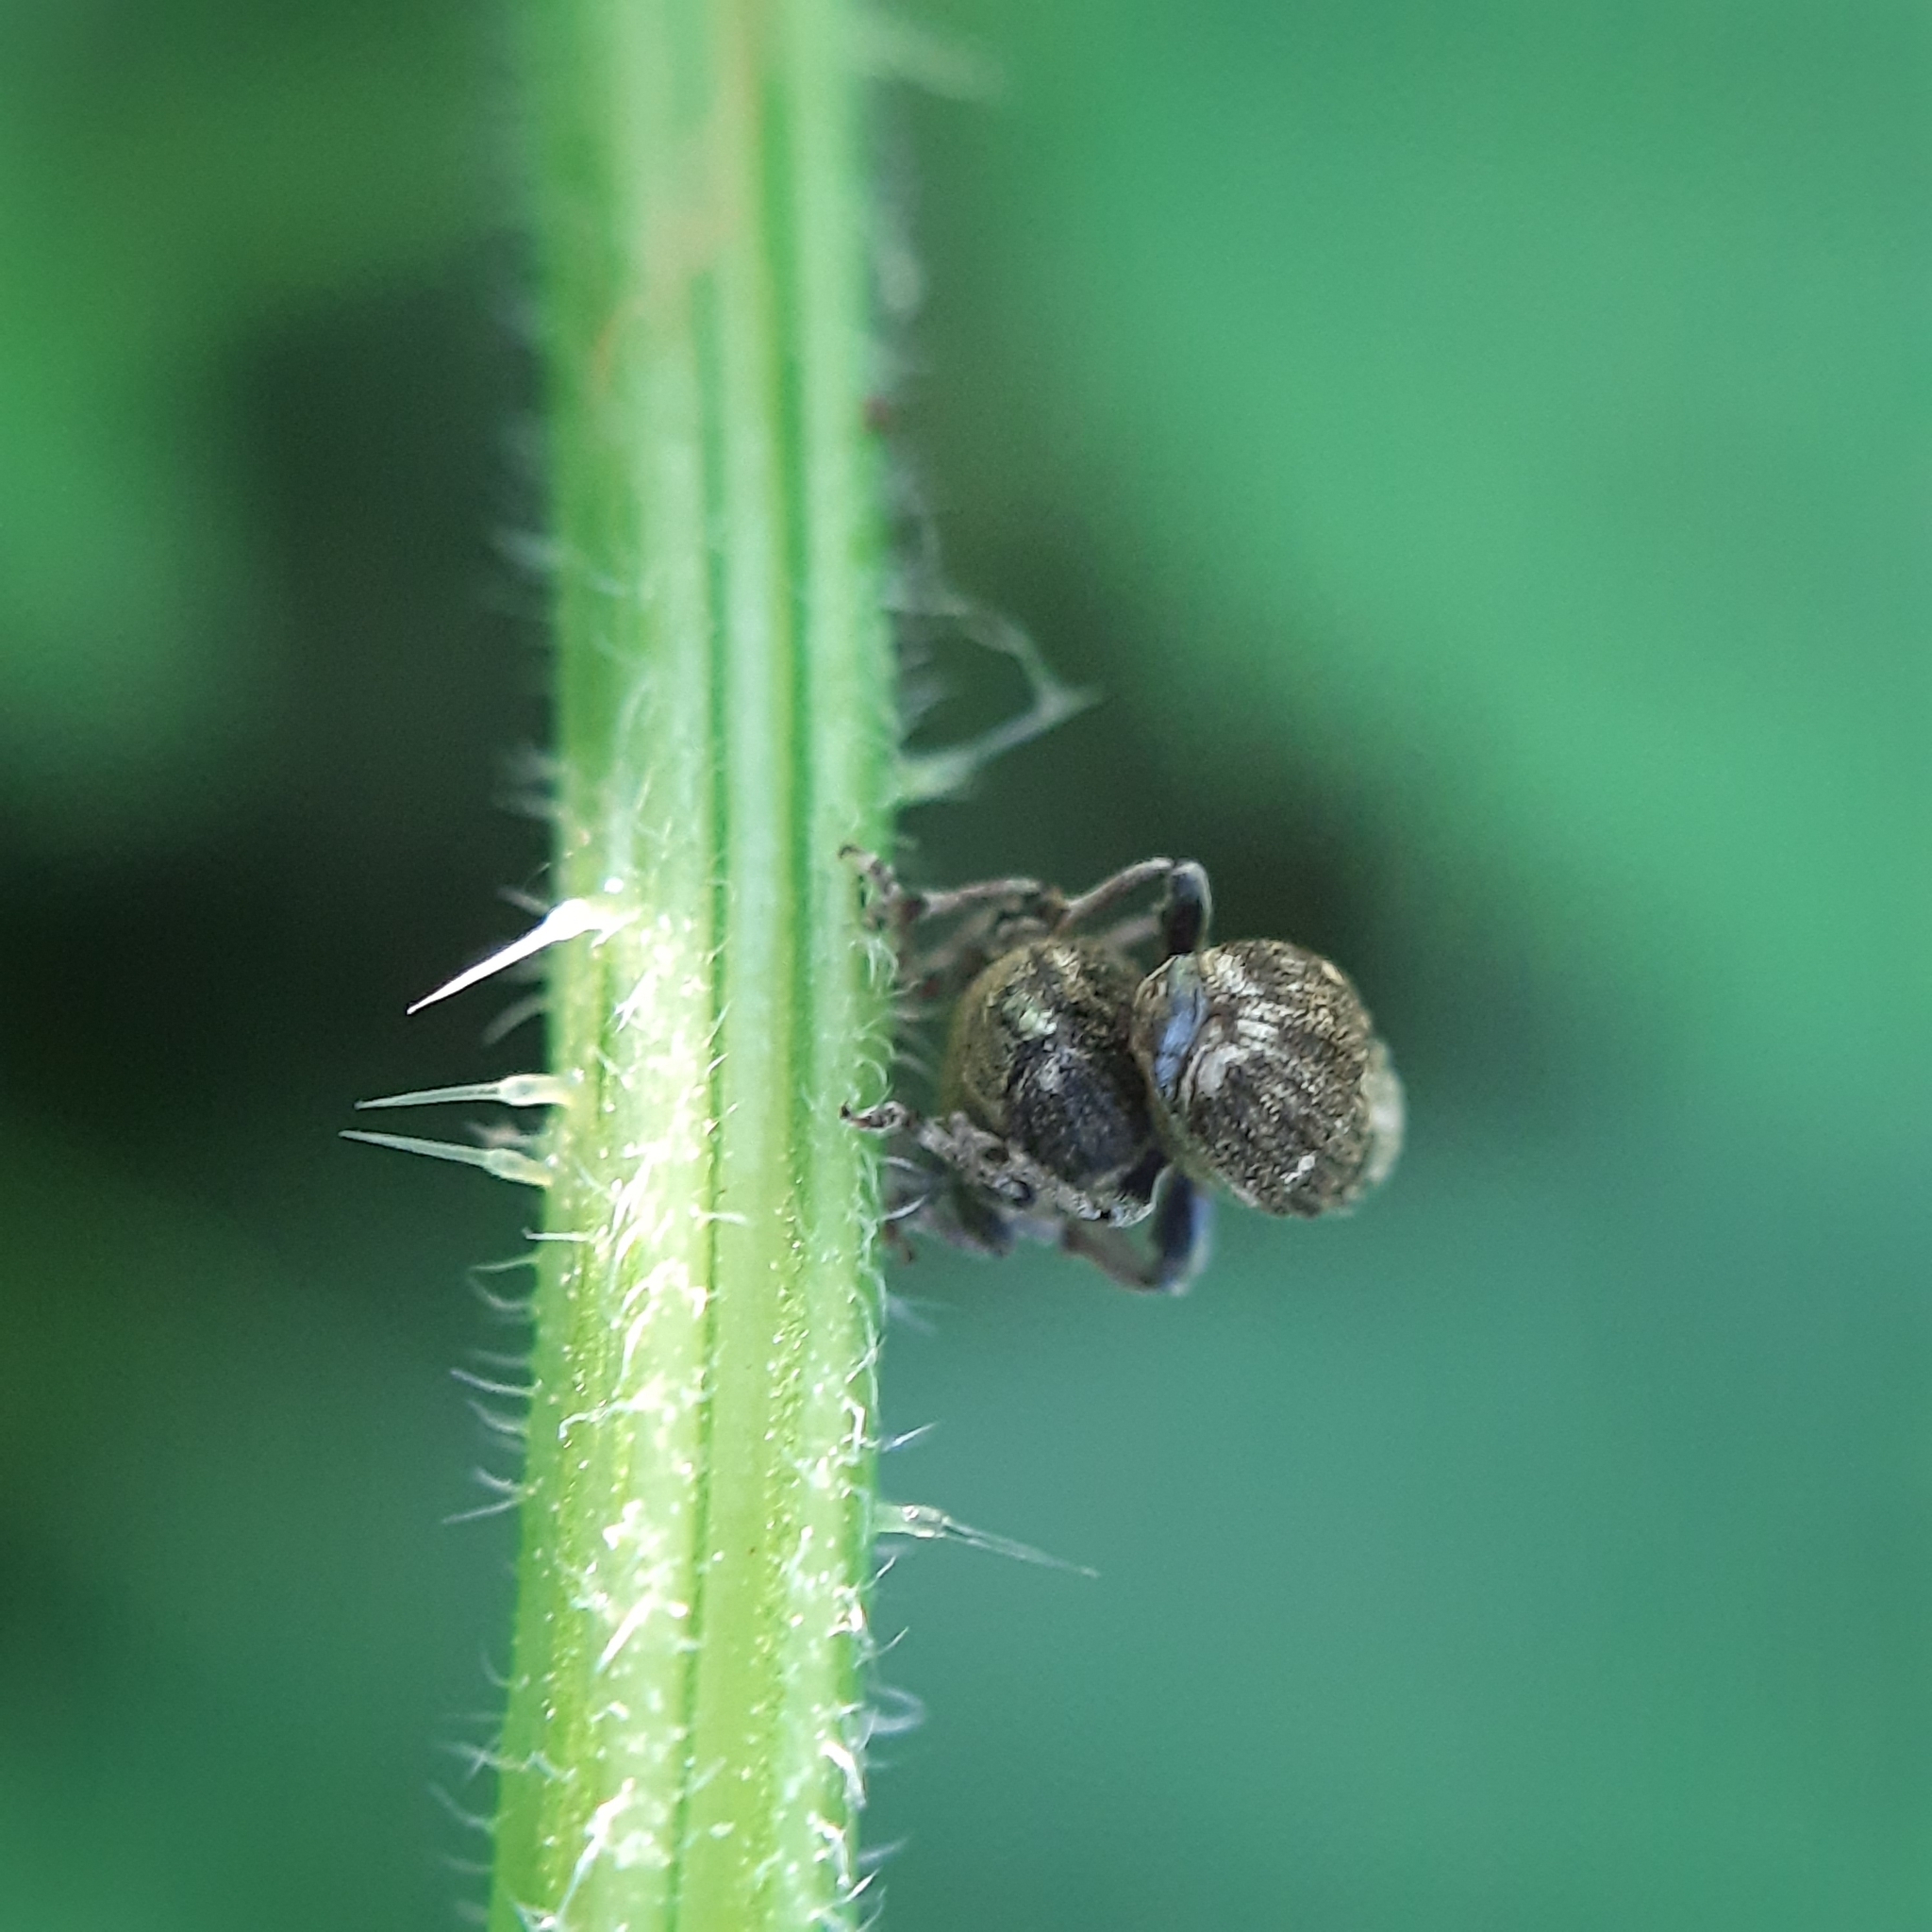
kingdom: Animalia
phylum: Arthropoda
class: Insecta
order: Coleoptera
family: Curculionidae
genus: Nedyus
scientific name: Nedyus quadrimaculatus
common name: Small nettle weevil
